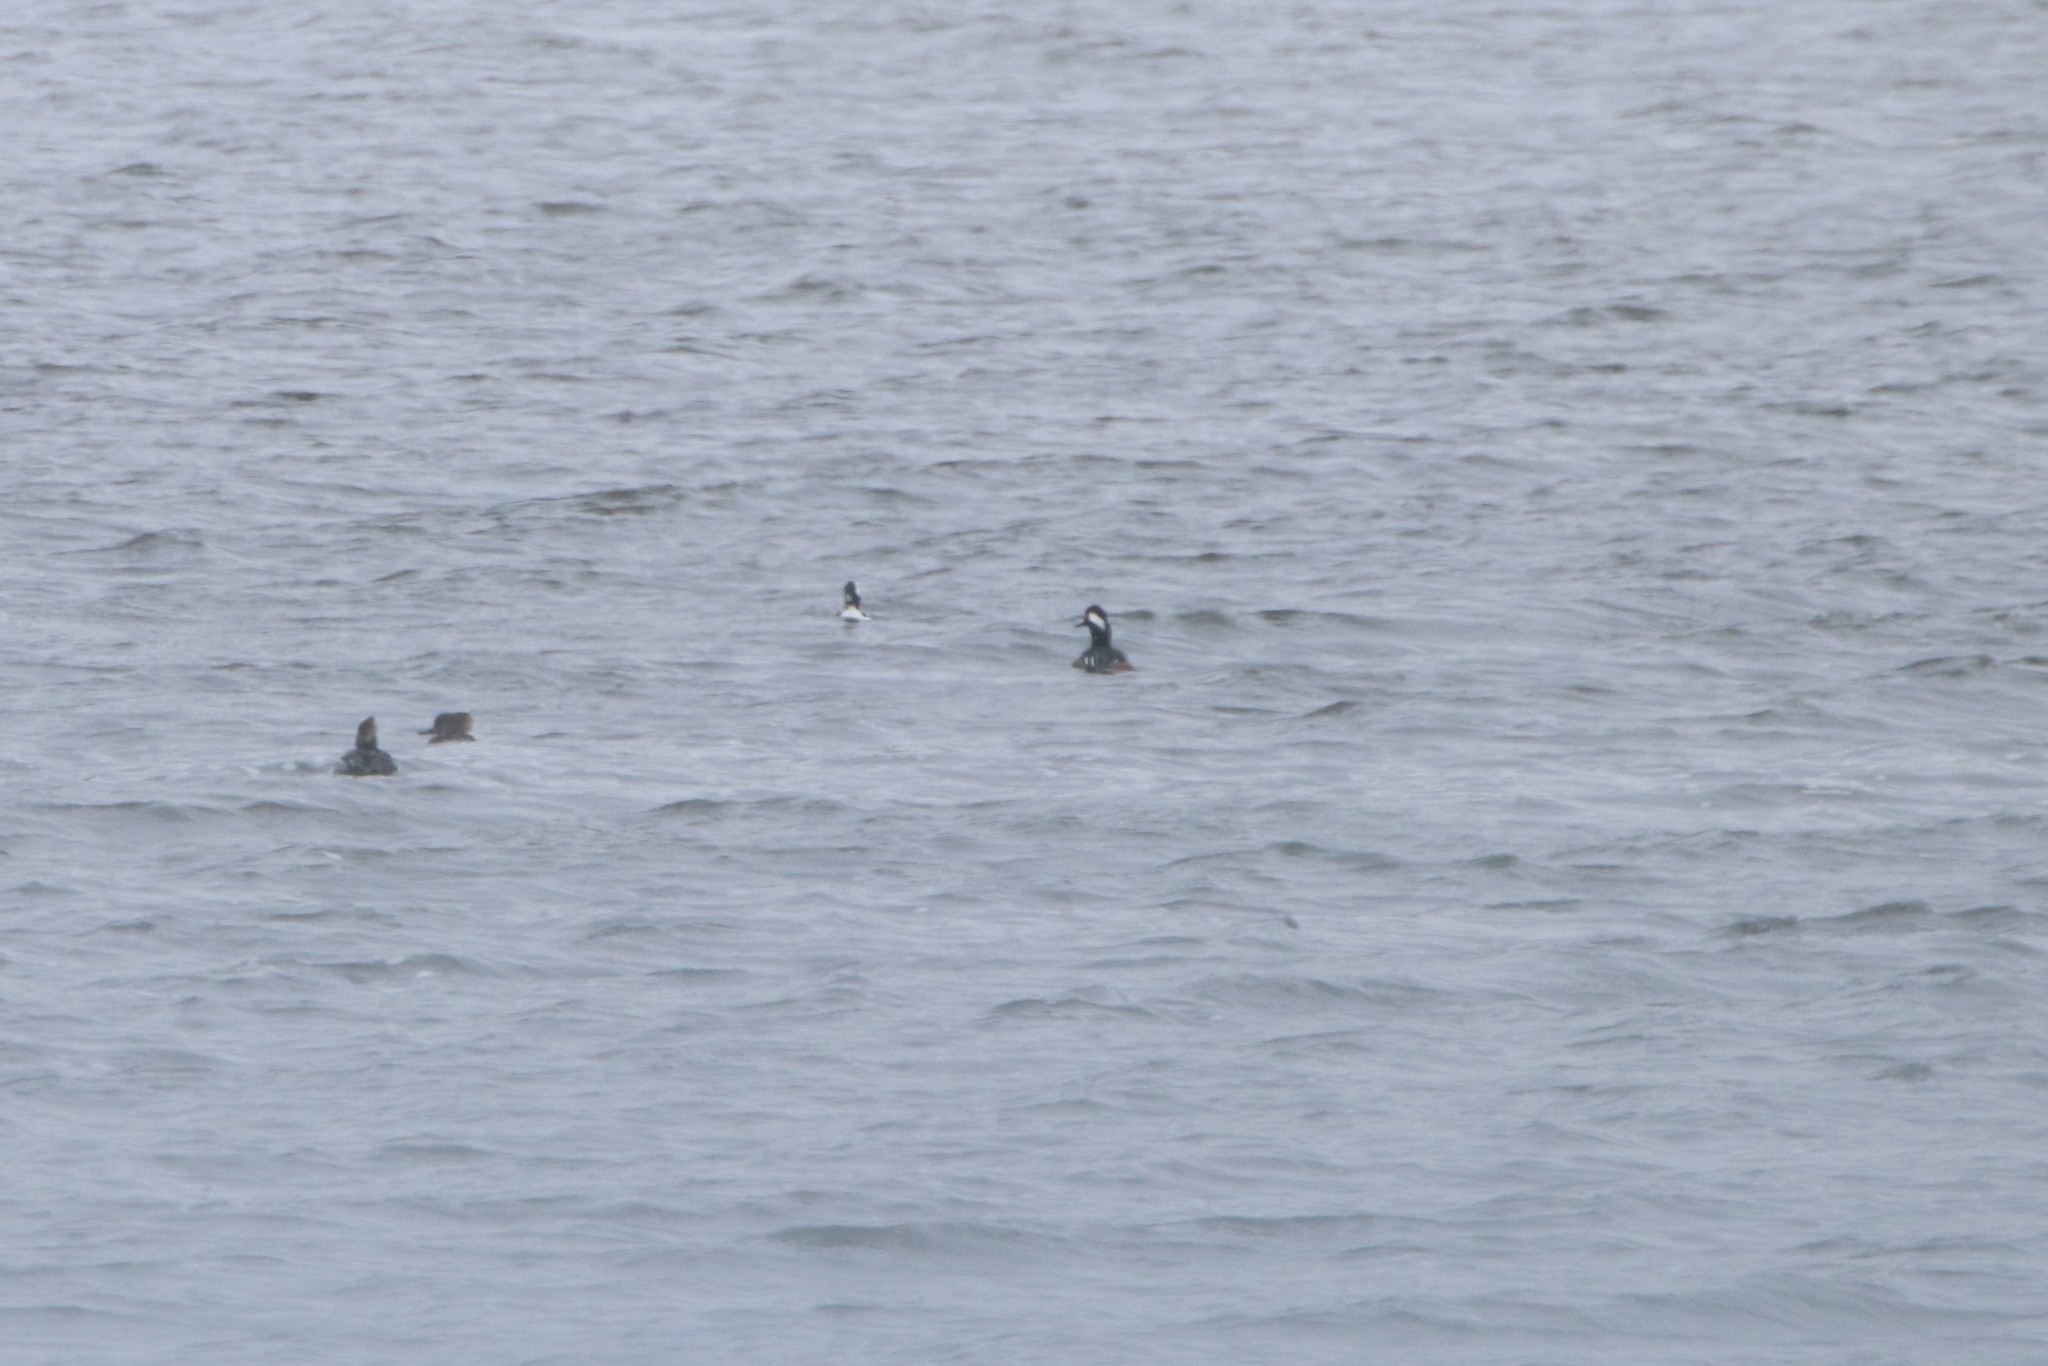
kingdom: Animalia
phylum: Chordata
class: Aves
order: Anseriformes
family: Anatidae
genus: Lophodytes
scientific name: Lophodytes cucullatus
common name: Hooded merganser
